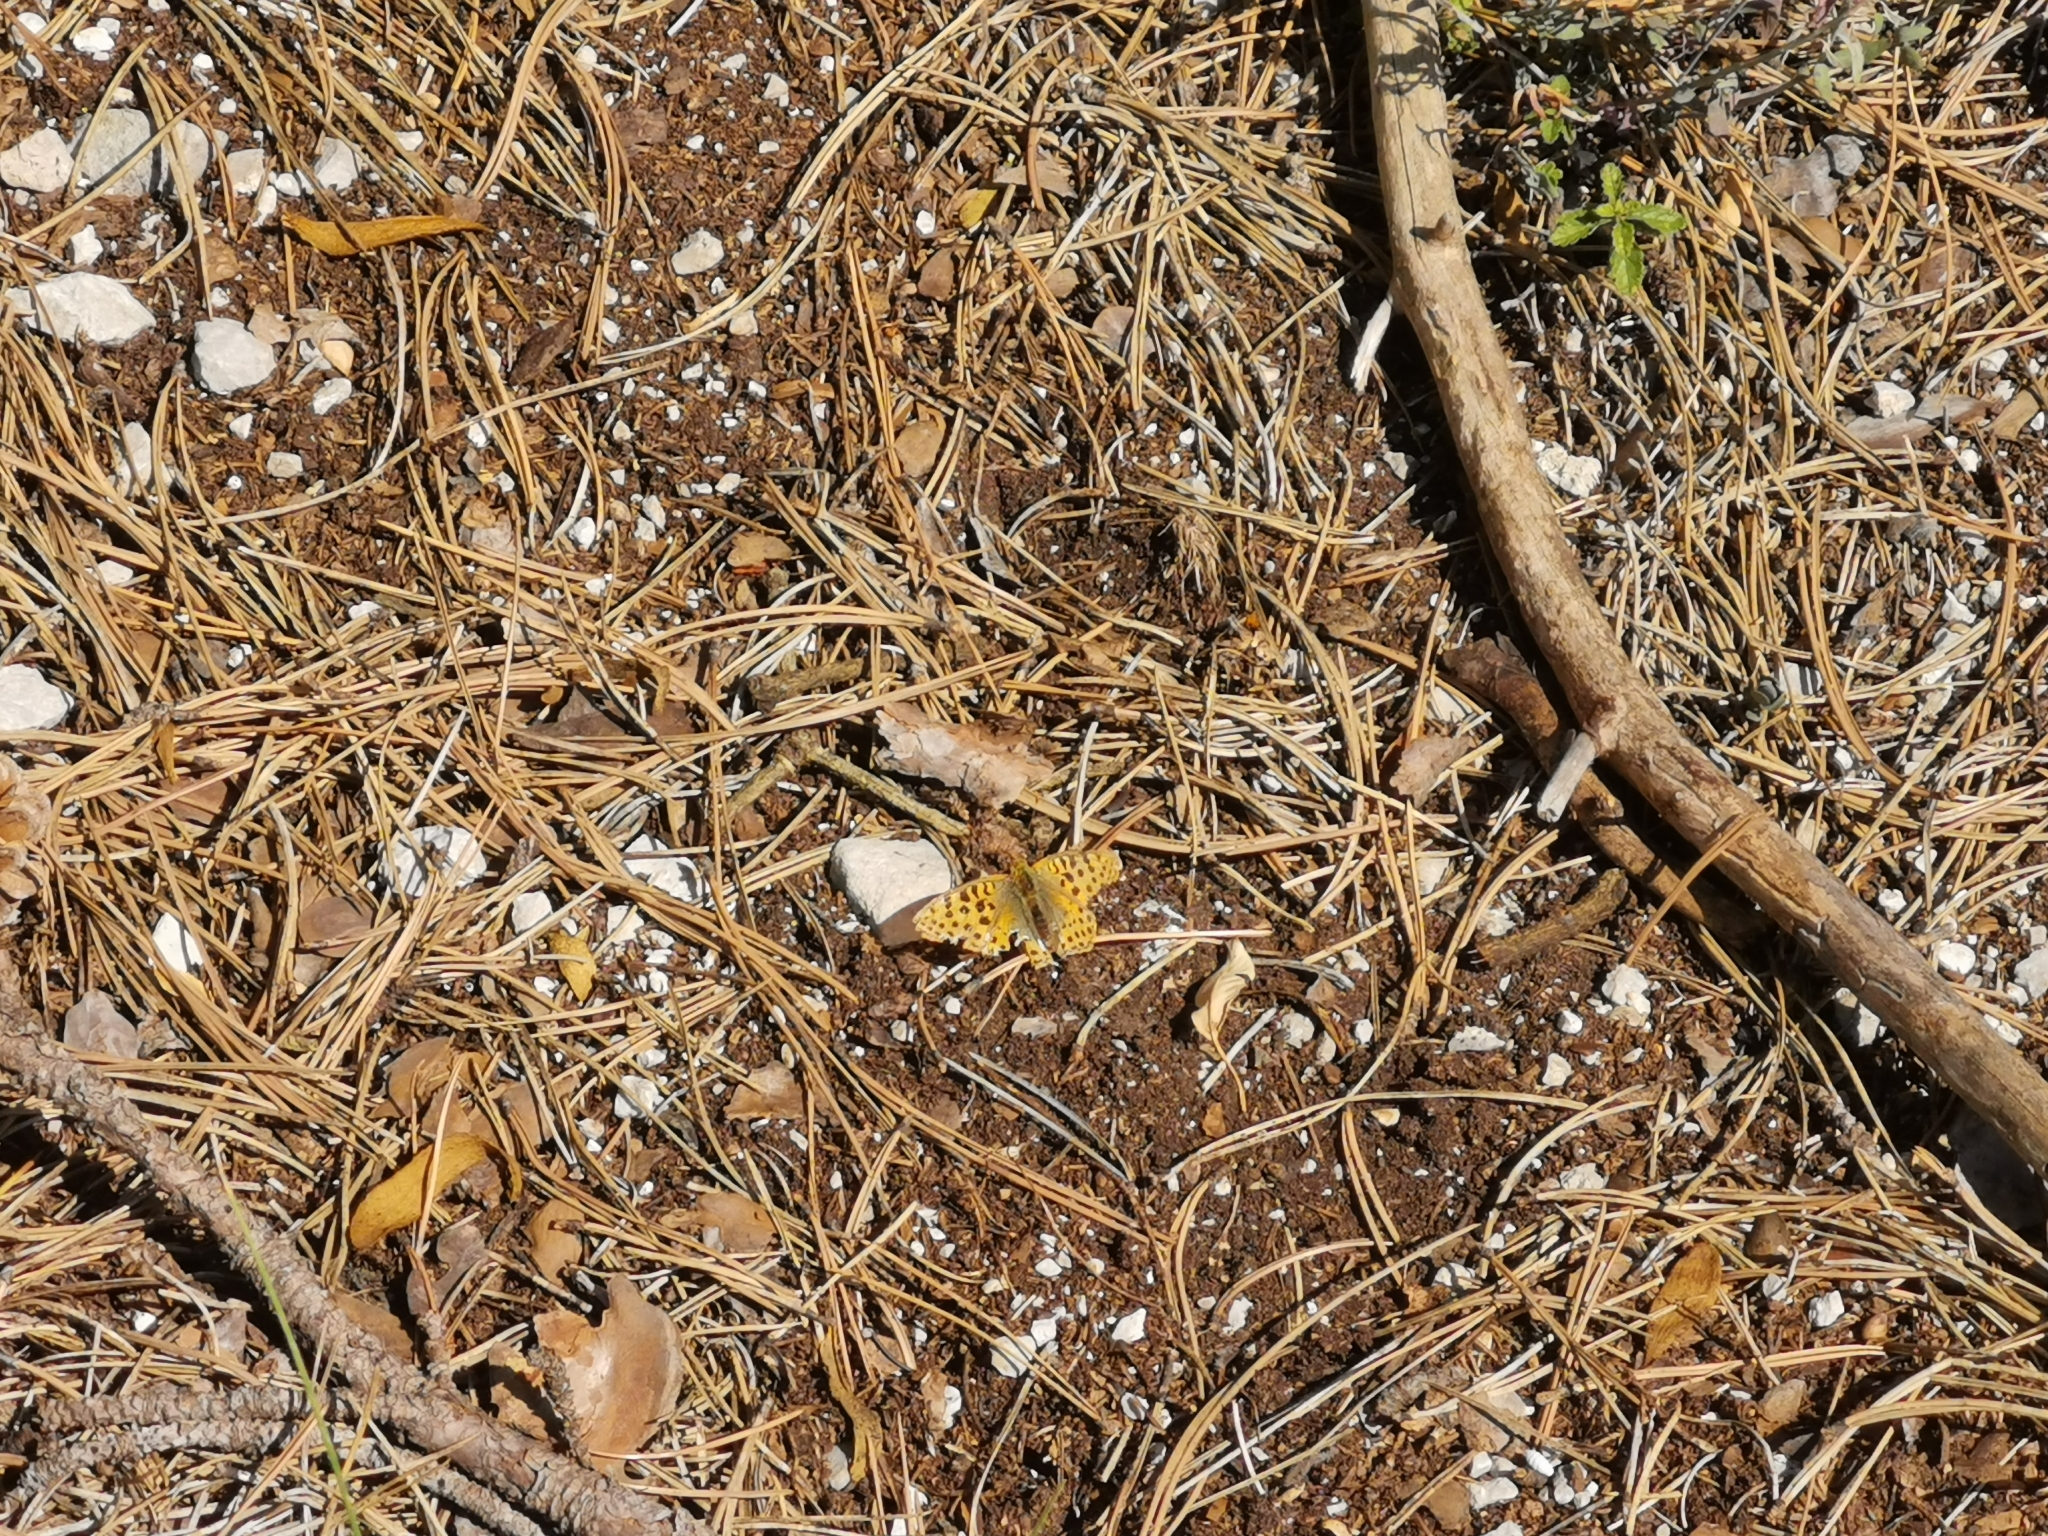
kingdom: Animalia
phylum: Arthropoda
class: Insecta
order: Lepidoptera
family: Nymphalidae
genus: Issoria
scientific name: Issoria lathonia
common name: Queen of spain fritillary
